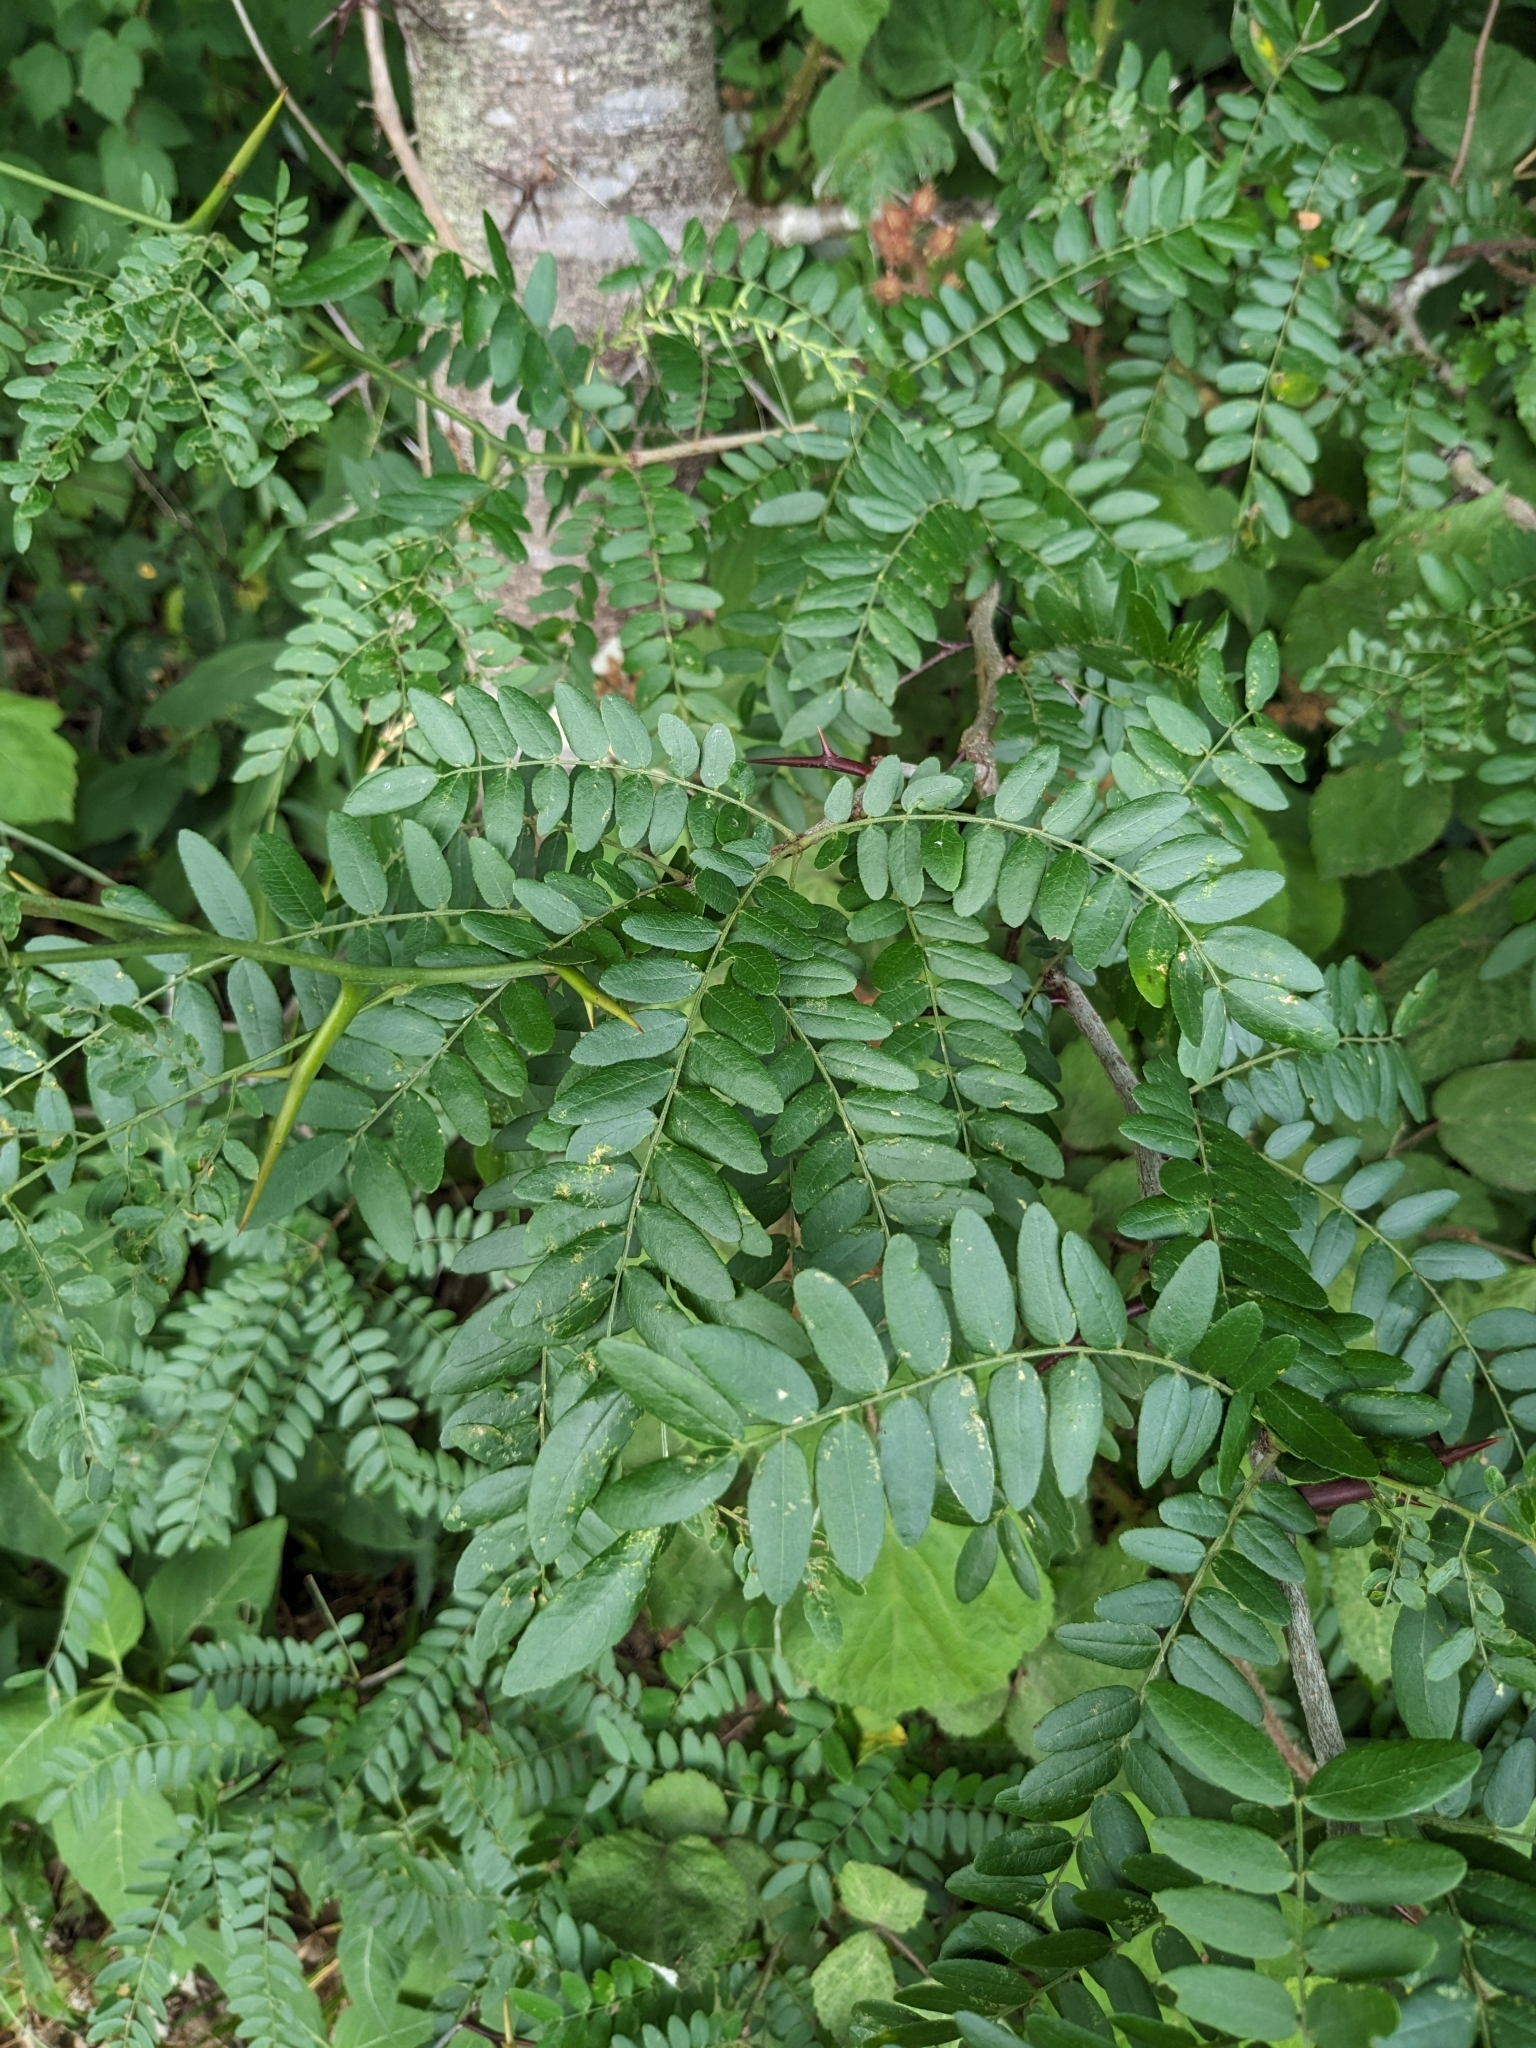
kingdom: Plantae
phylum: Tracheophyta
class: Magnoliopsida
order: Fabales
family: Fabaceae
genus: Gleditsia
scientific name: Gleditsia triacanthos
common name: Common honeylocust
